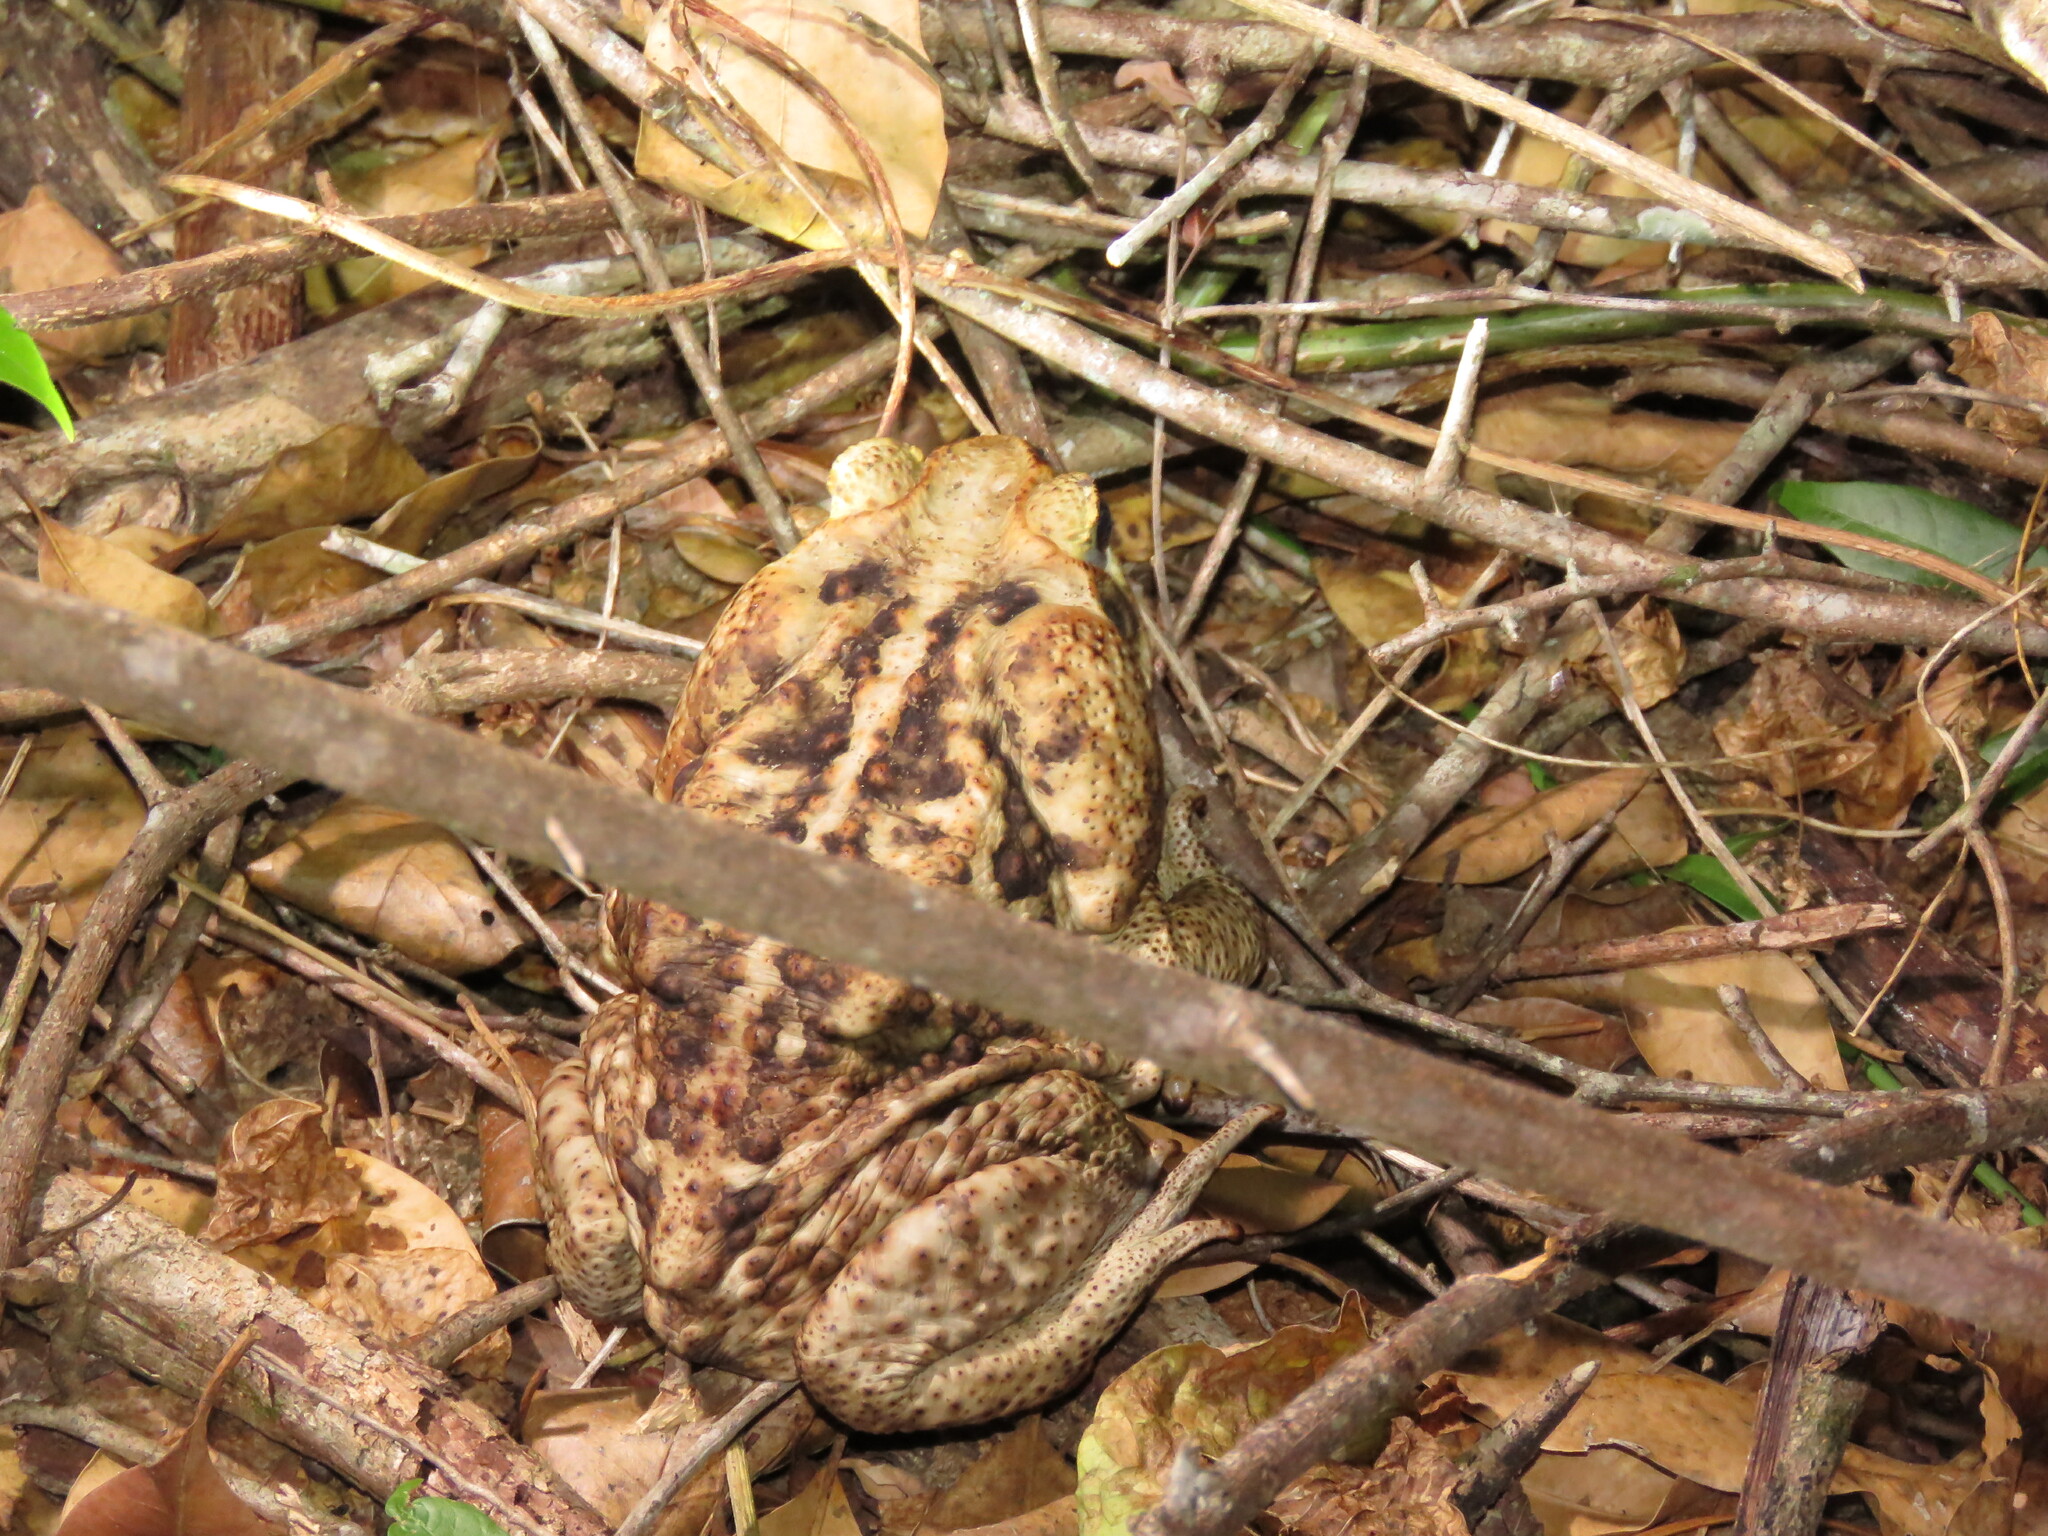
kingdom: Animalia
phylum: Chordata
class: Amphibia
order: Anura
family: Bufonidae
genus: Rhinella
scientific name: Rhinella horribilis
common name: Mesoamerican cane toad
